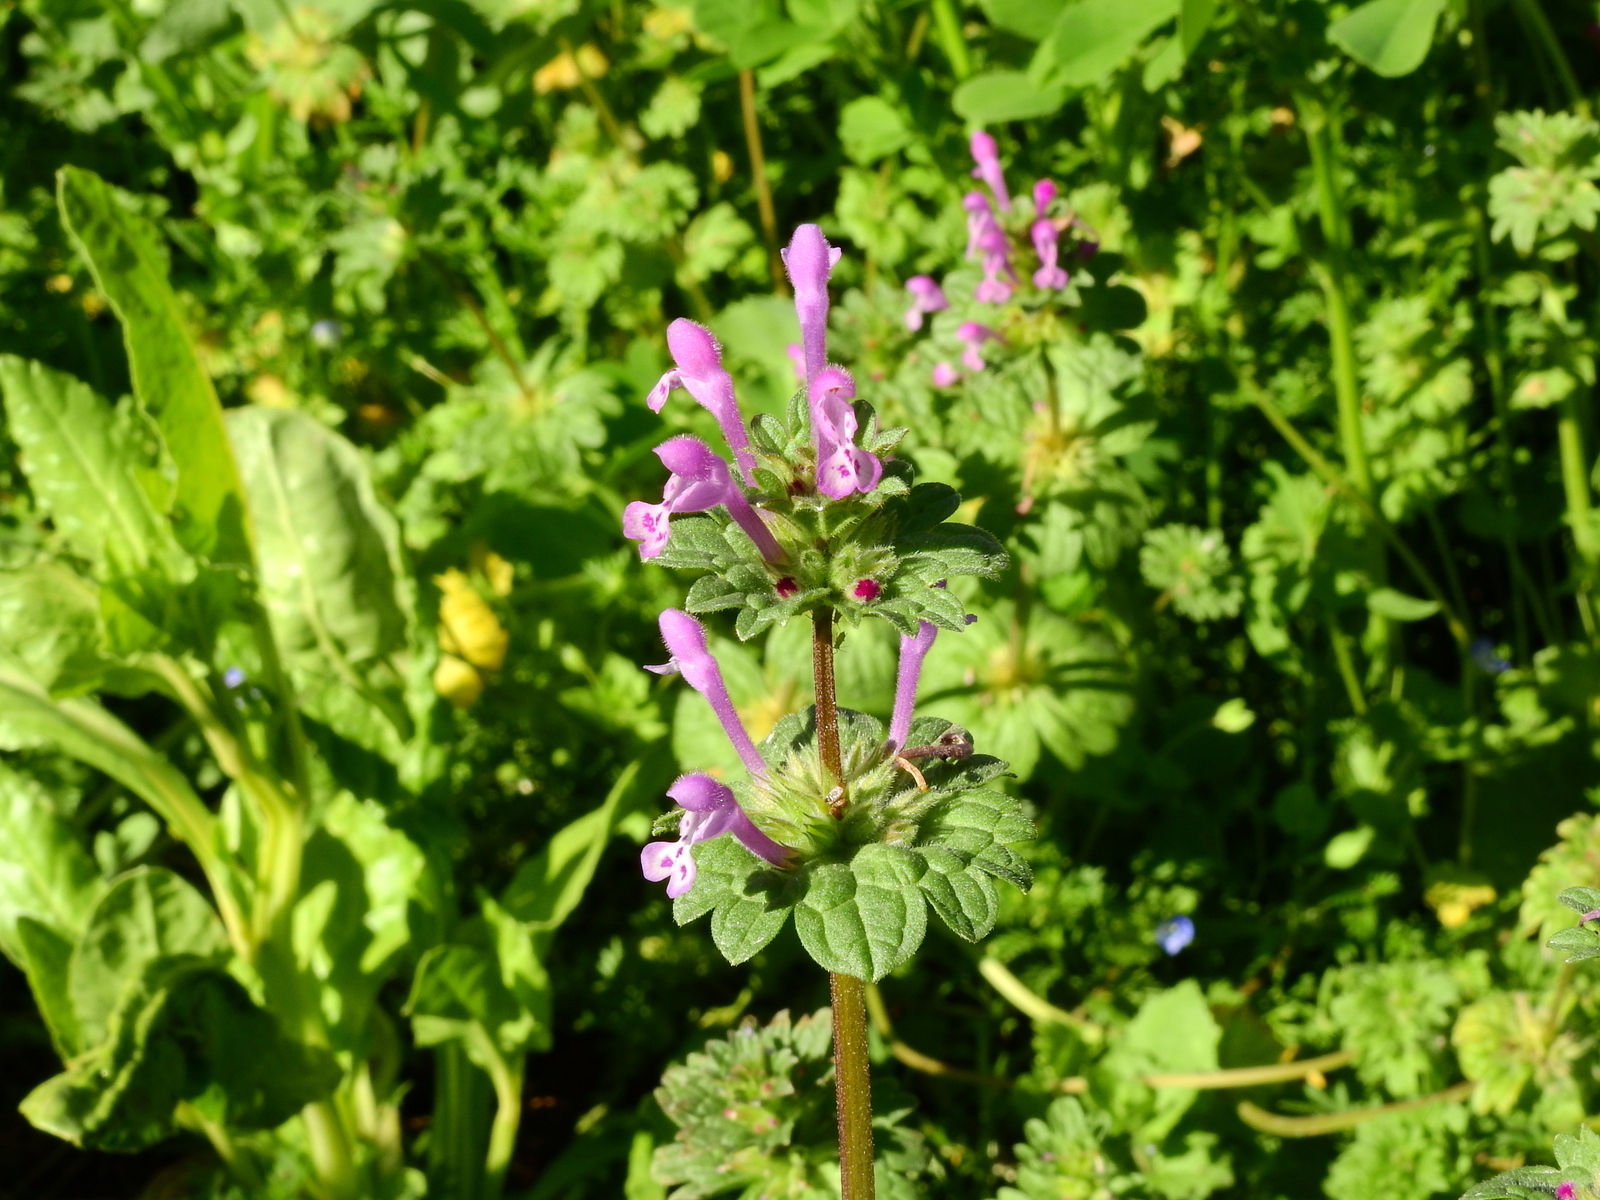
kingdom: Plantae
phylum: Tracheophyta
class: Magnoliopsida
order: Lamiales
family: Lamiaceae
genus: Lamium
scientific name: Lamium amplexicaule
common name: Henbit dead-nettle
